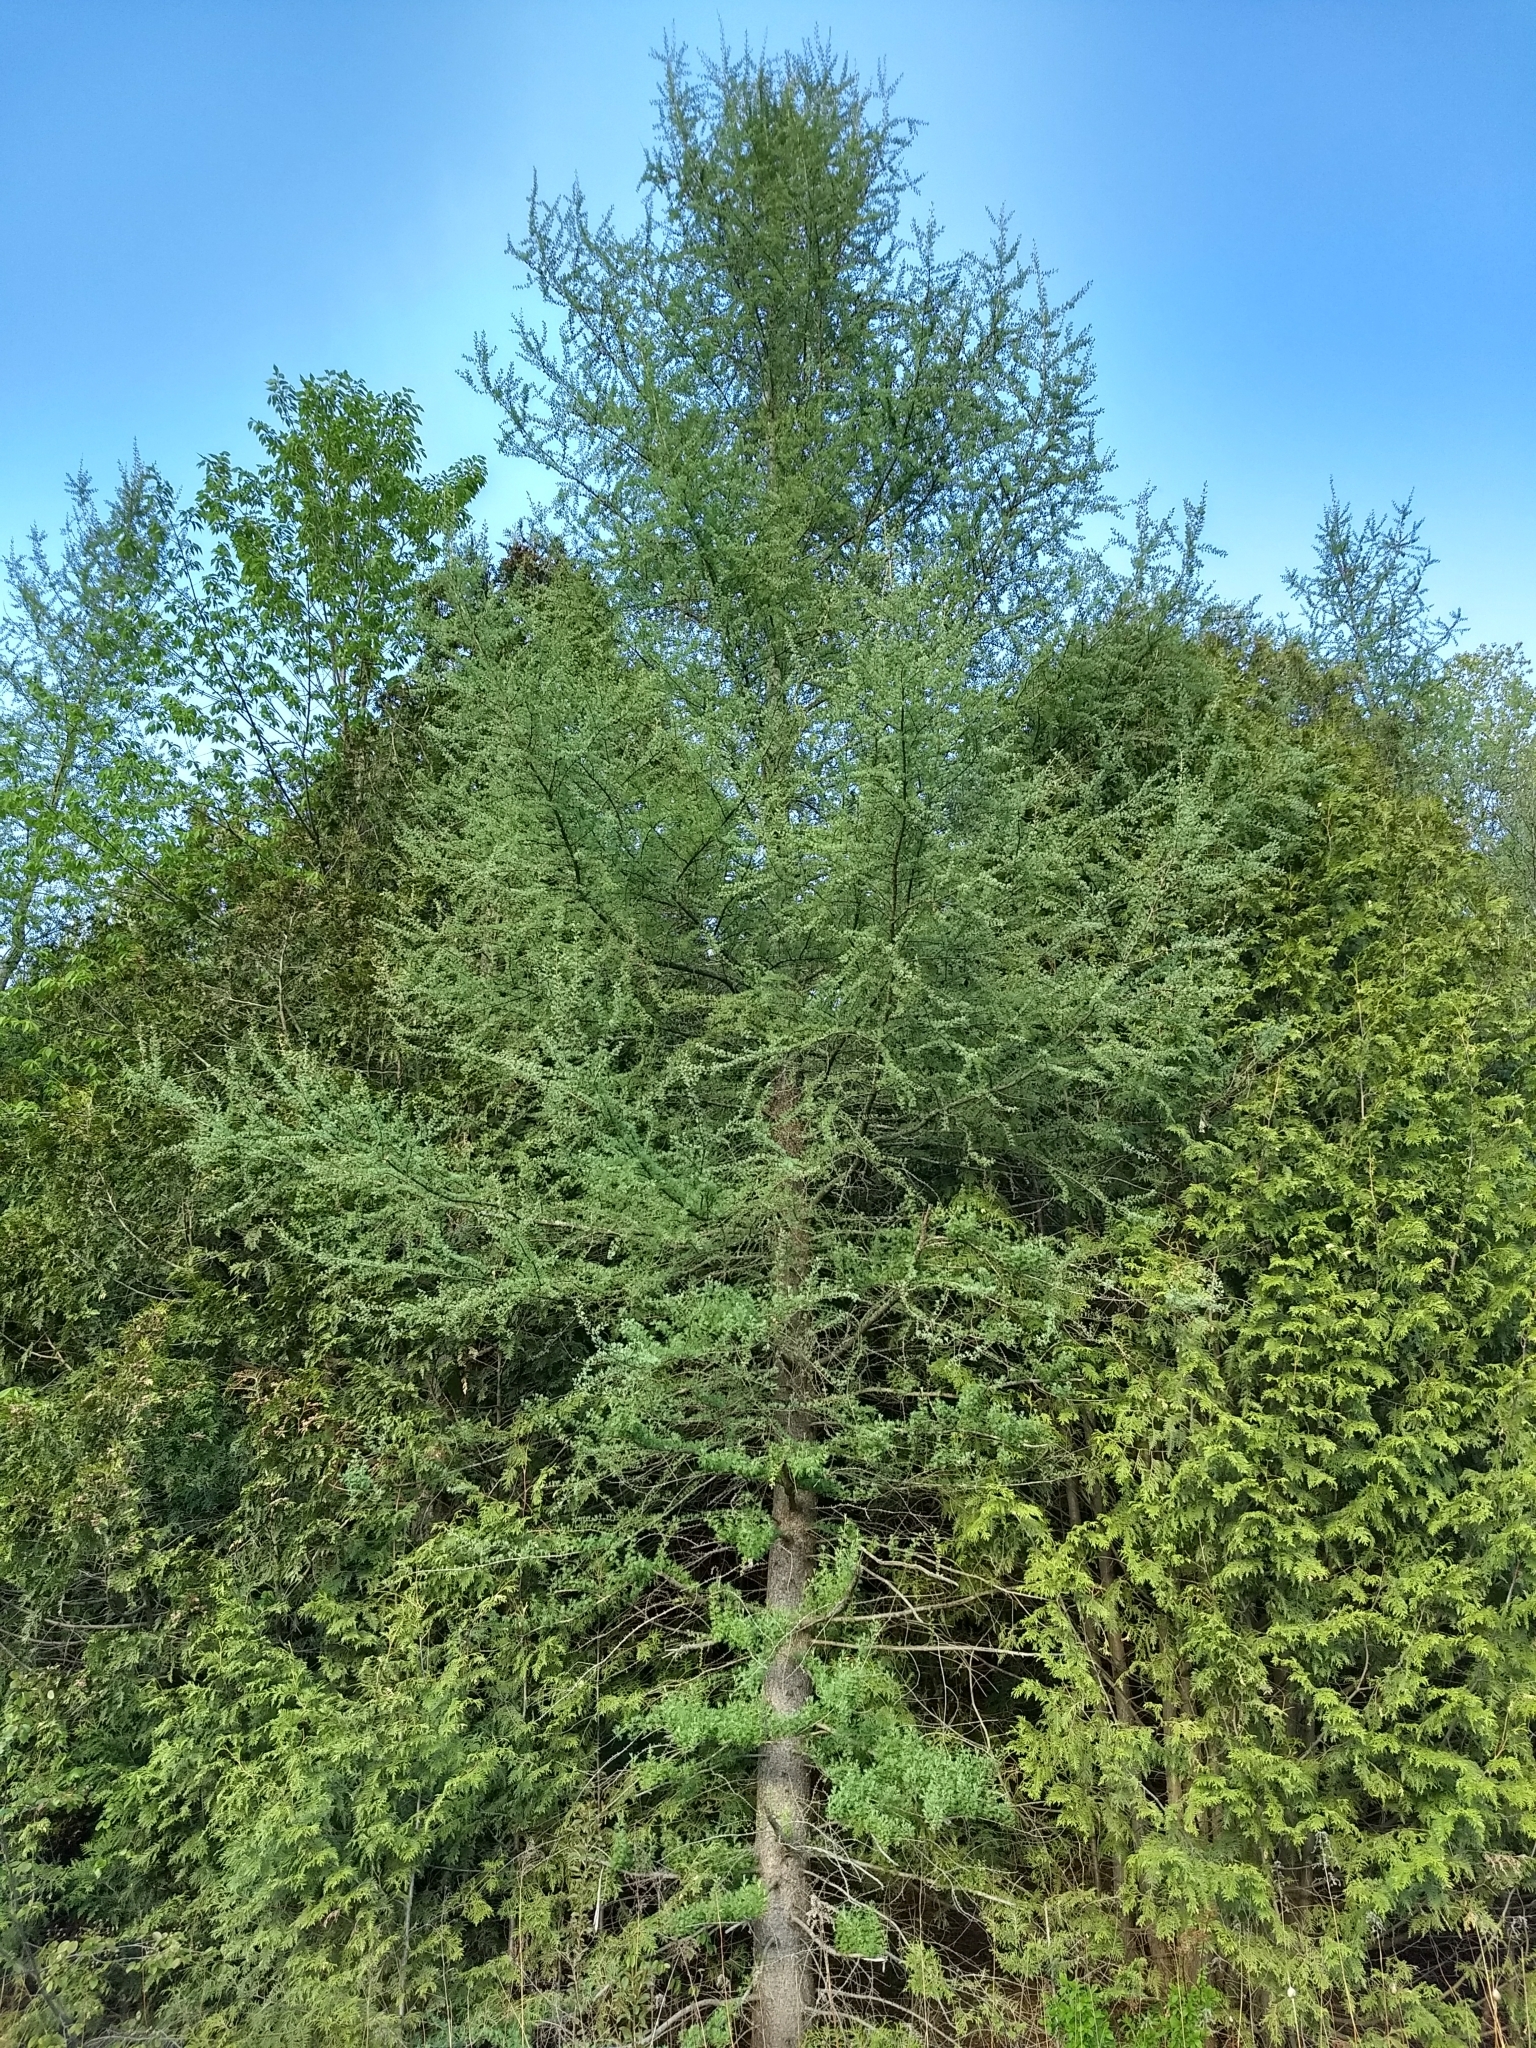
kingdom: Plantae
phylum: Tracheophyta
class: Pinopsida
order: Pinales
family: Pinaceae
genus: Larix
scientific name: Larix laricina
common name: American larch
